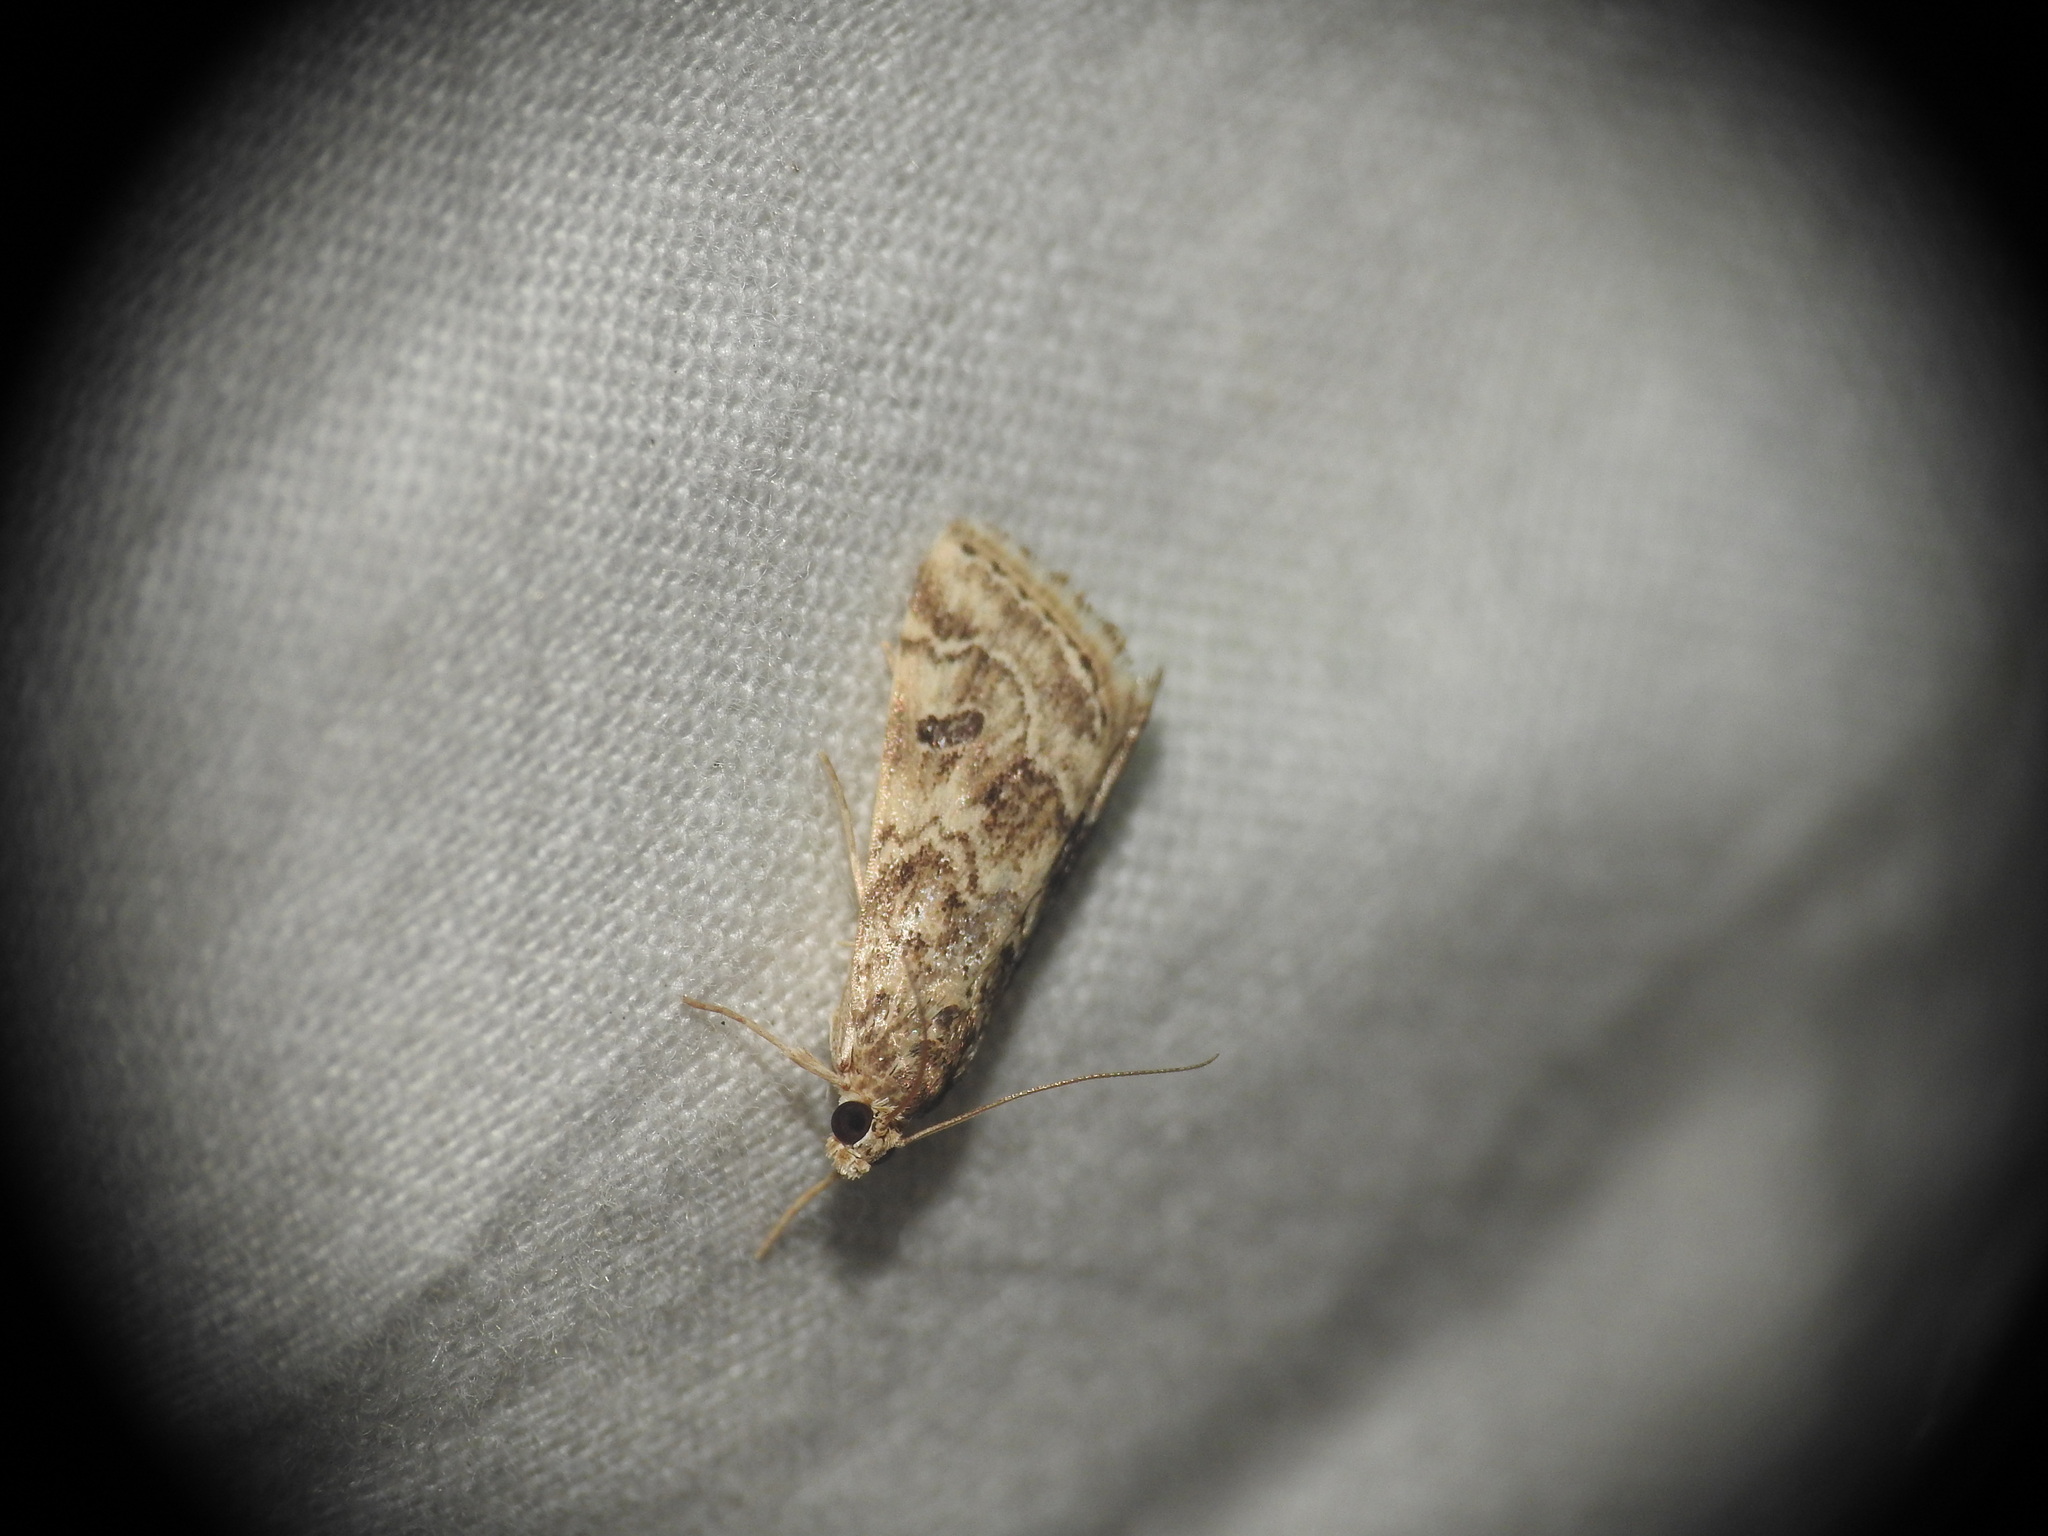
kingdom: Animalia
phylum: Arthropoda
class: Insecta
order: Lepidoptera
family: Crambidae
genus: Hellula
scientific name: Hellula undalis
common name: Cabbage webworm
